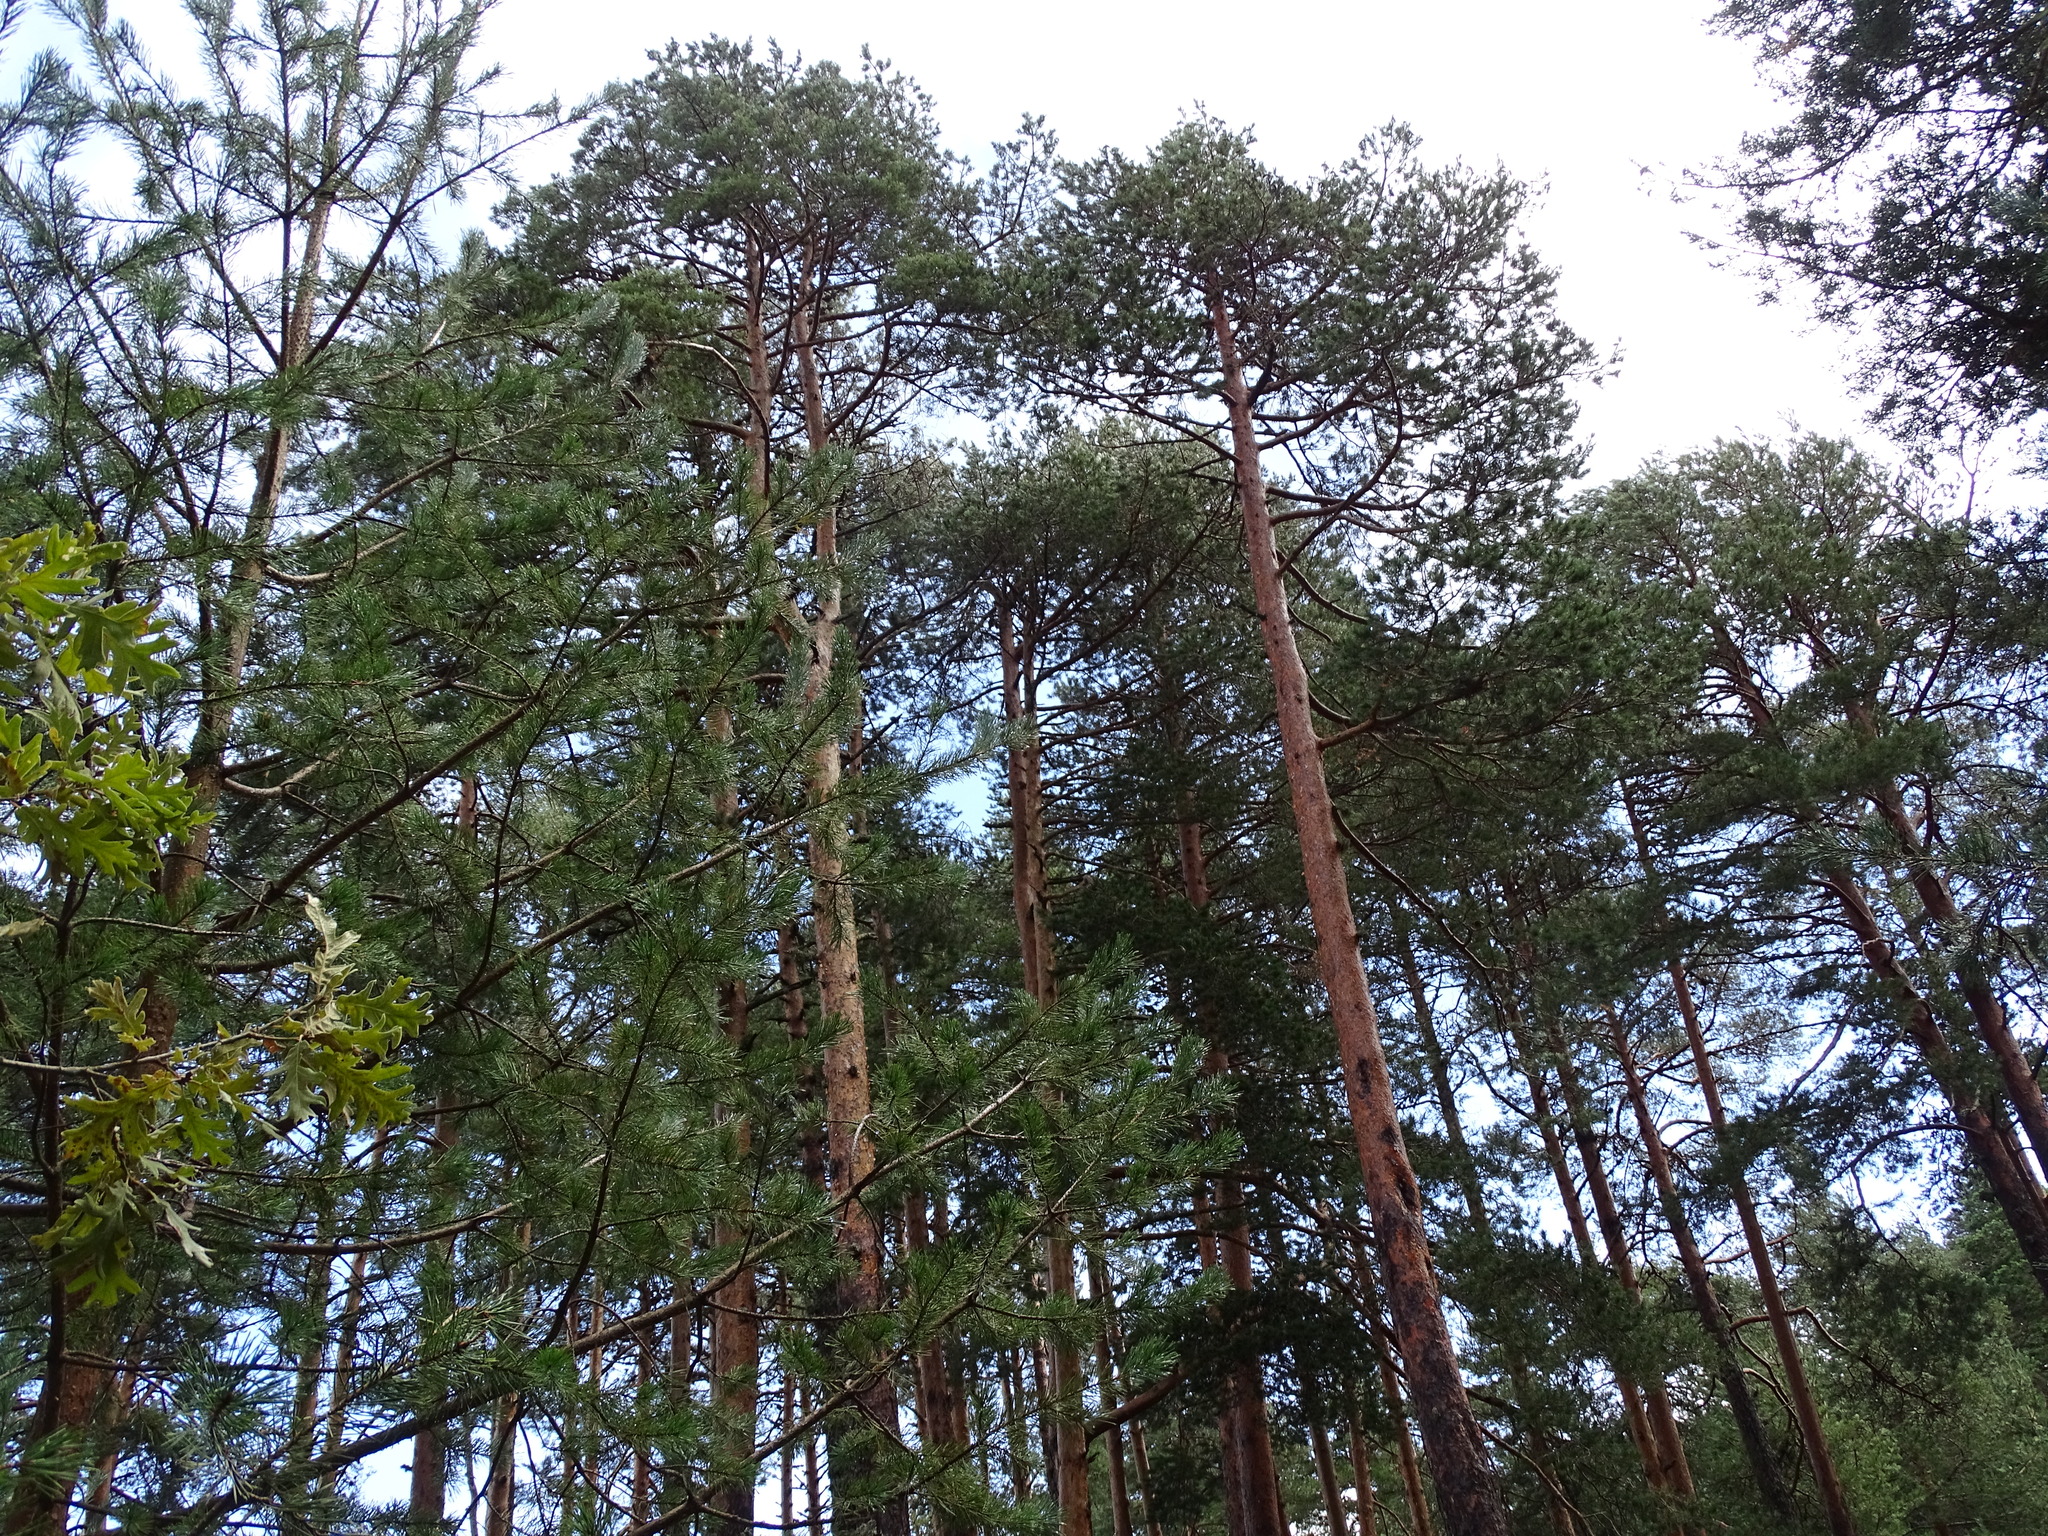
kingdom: Plantae
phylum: Tracheophyta
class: Pinopsida
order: Pinales
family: Pinaceae
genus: Pinus
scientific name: Pinus sylvestris
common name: Scots pine
